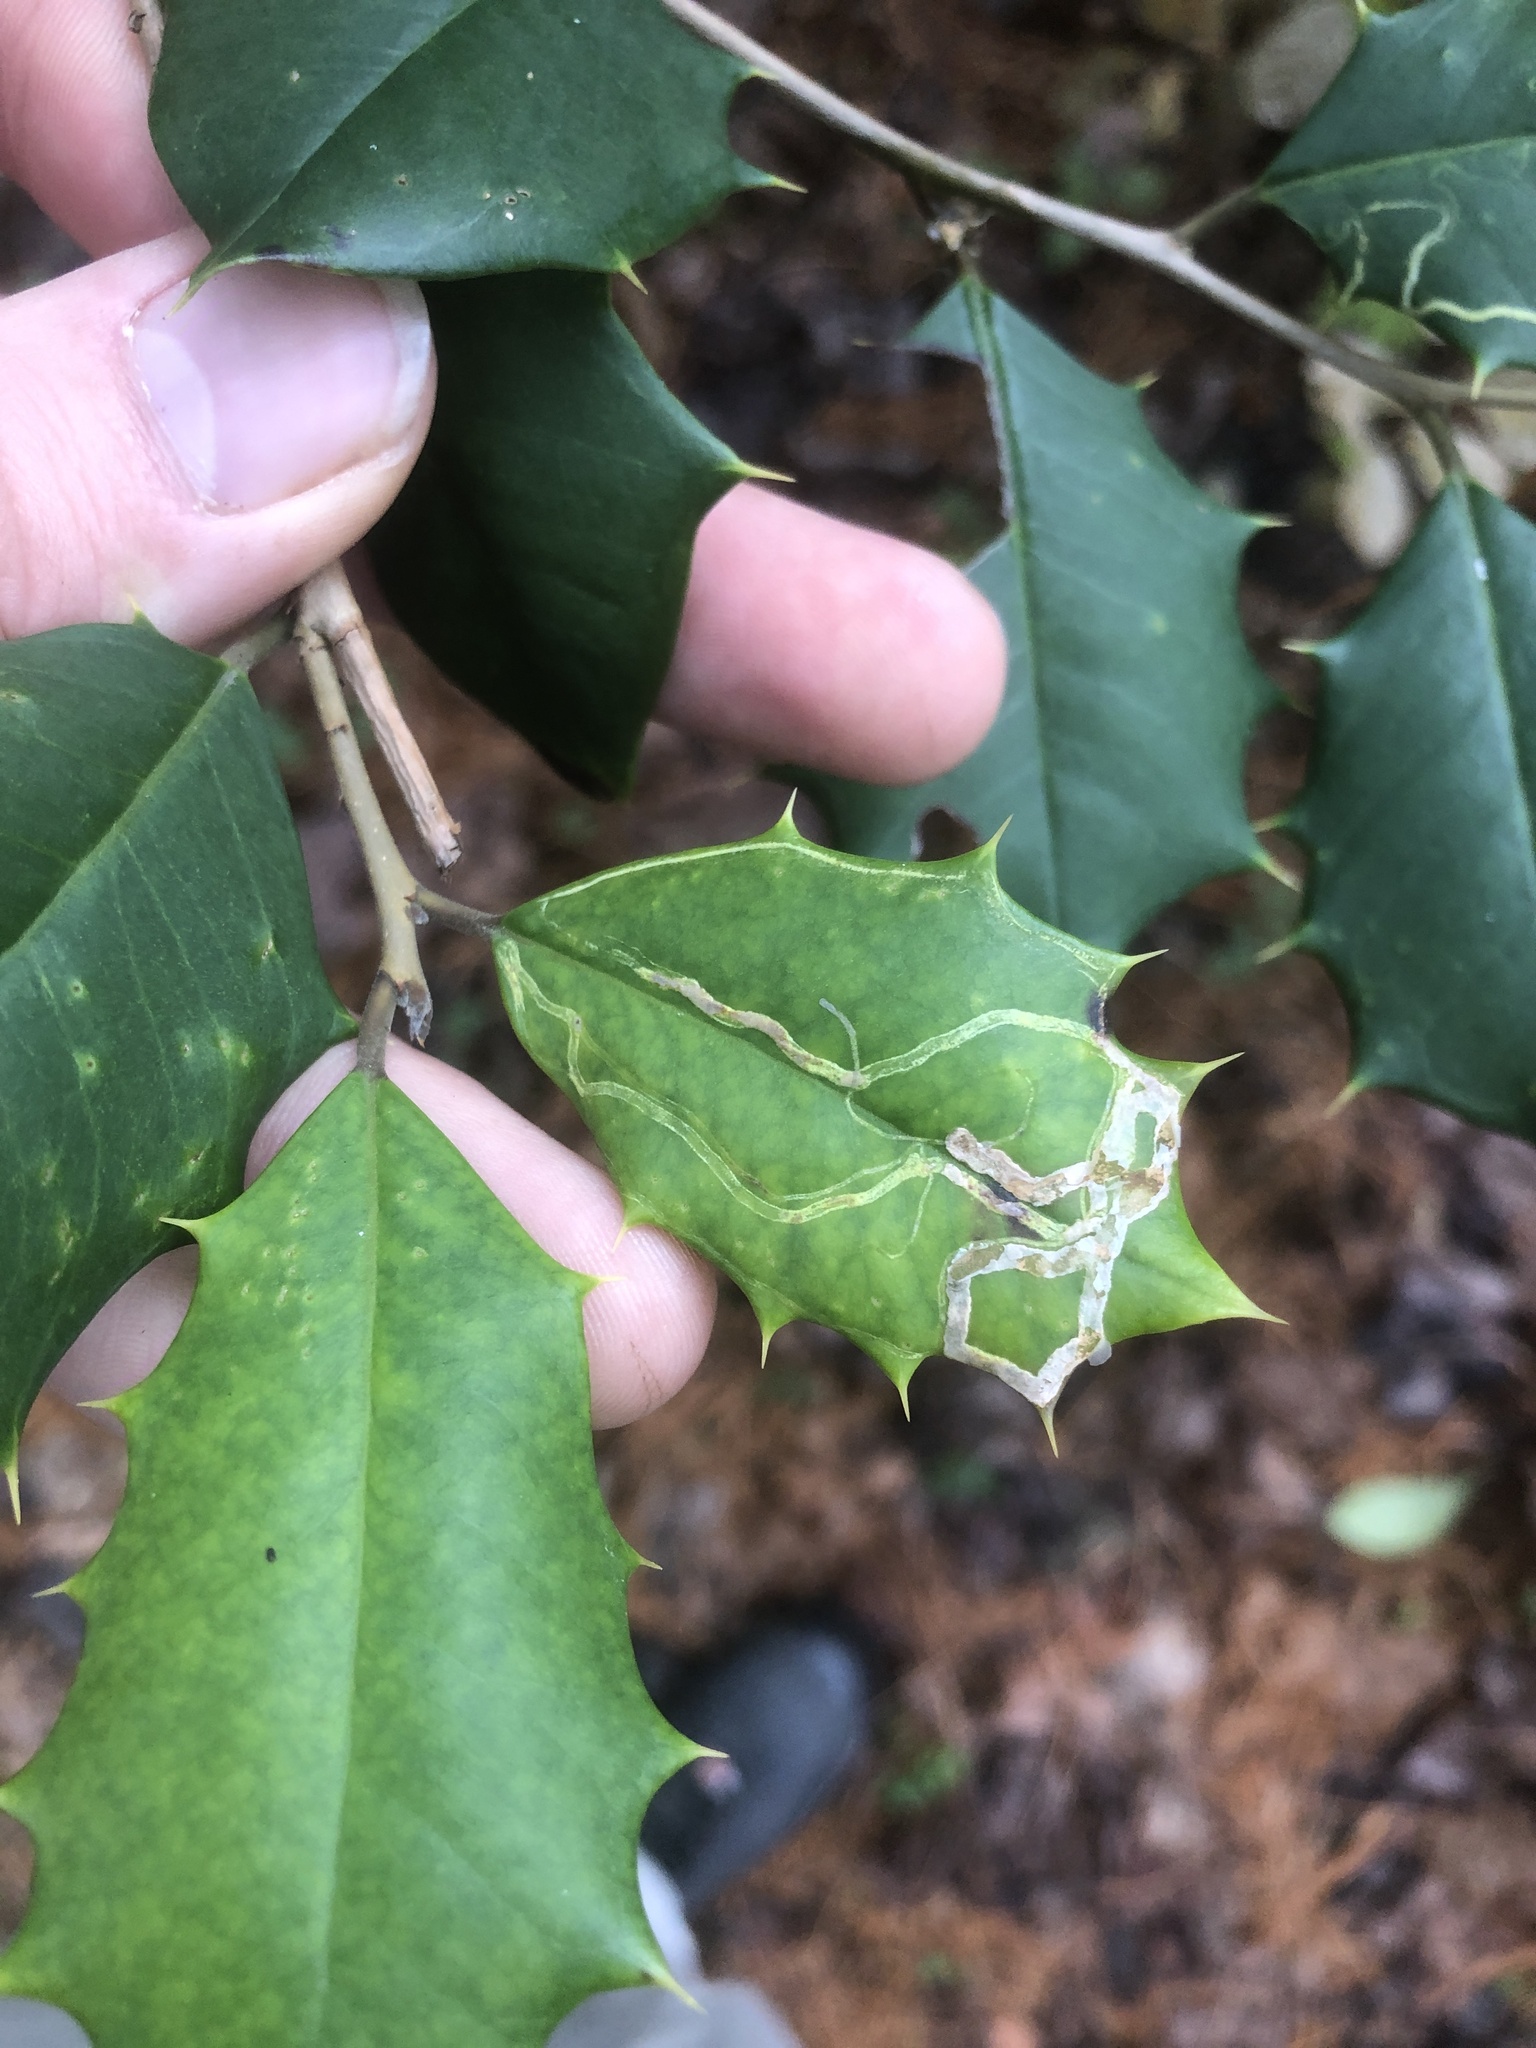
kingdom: Animalia
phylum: Arthropoda
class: Insecta
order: Diptera
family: Agromyzidae
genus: Phytomyza
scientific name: Phytomyza opacae
